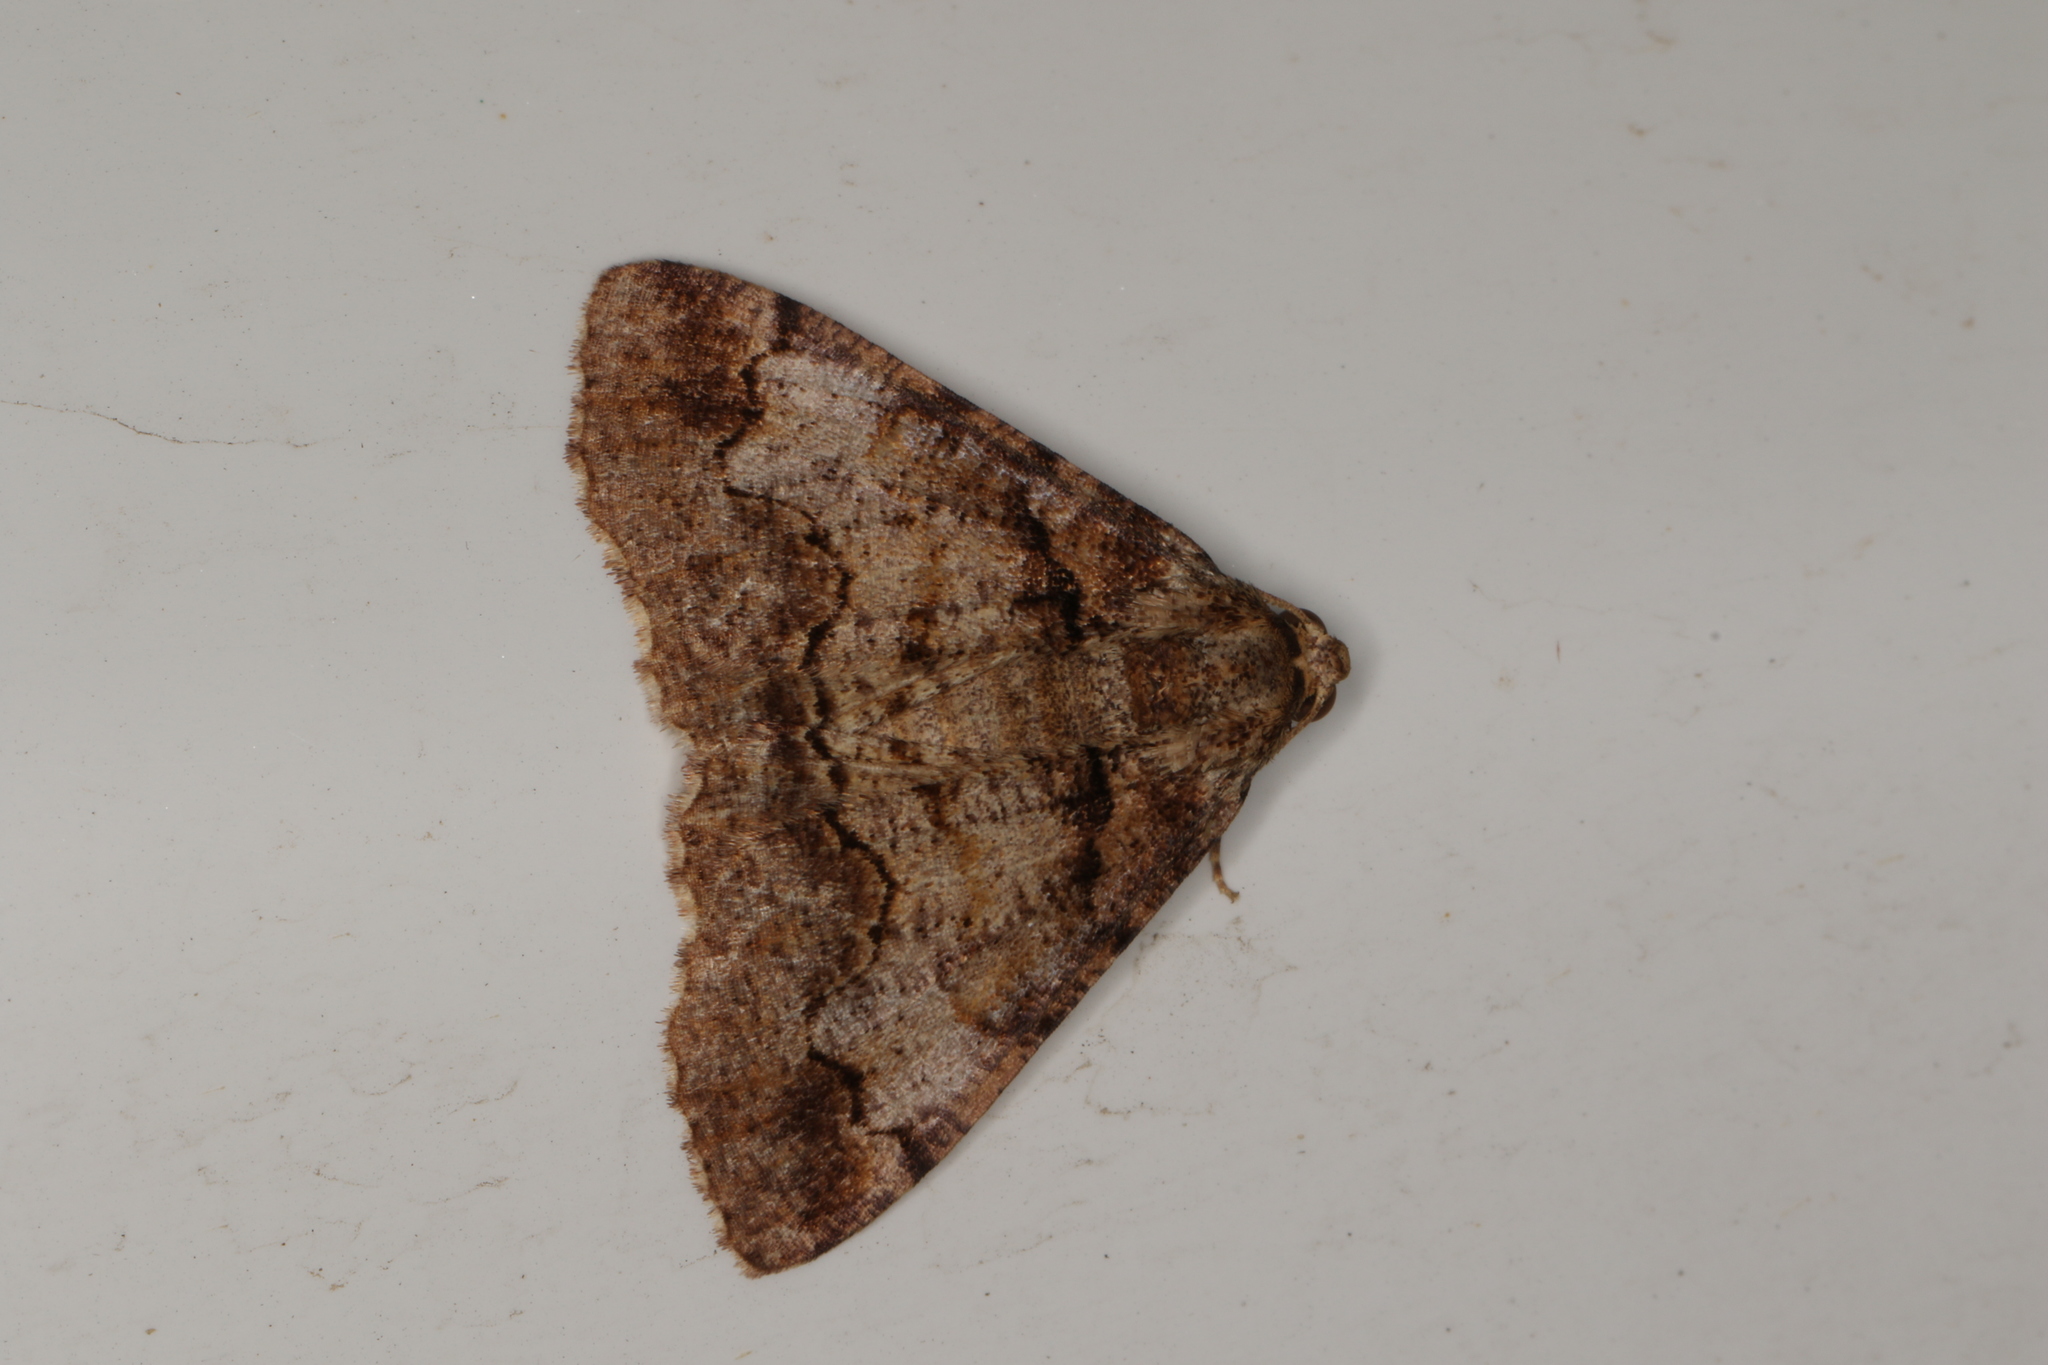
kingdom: Animalia
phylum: Arthropoda
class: Insecta
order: Lepidoptera
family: Geometridae
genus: Cryphaea
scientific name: Cryphaea xylina
